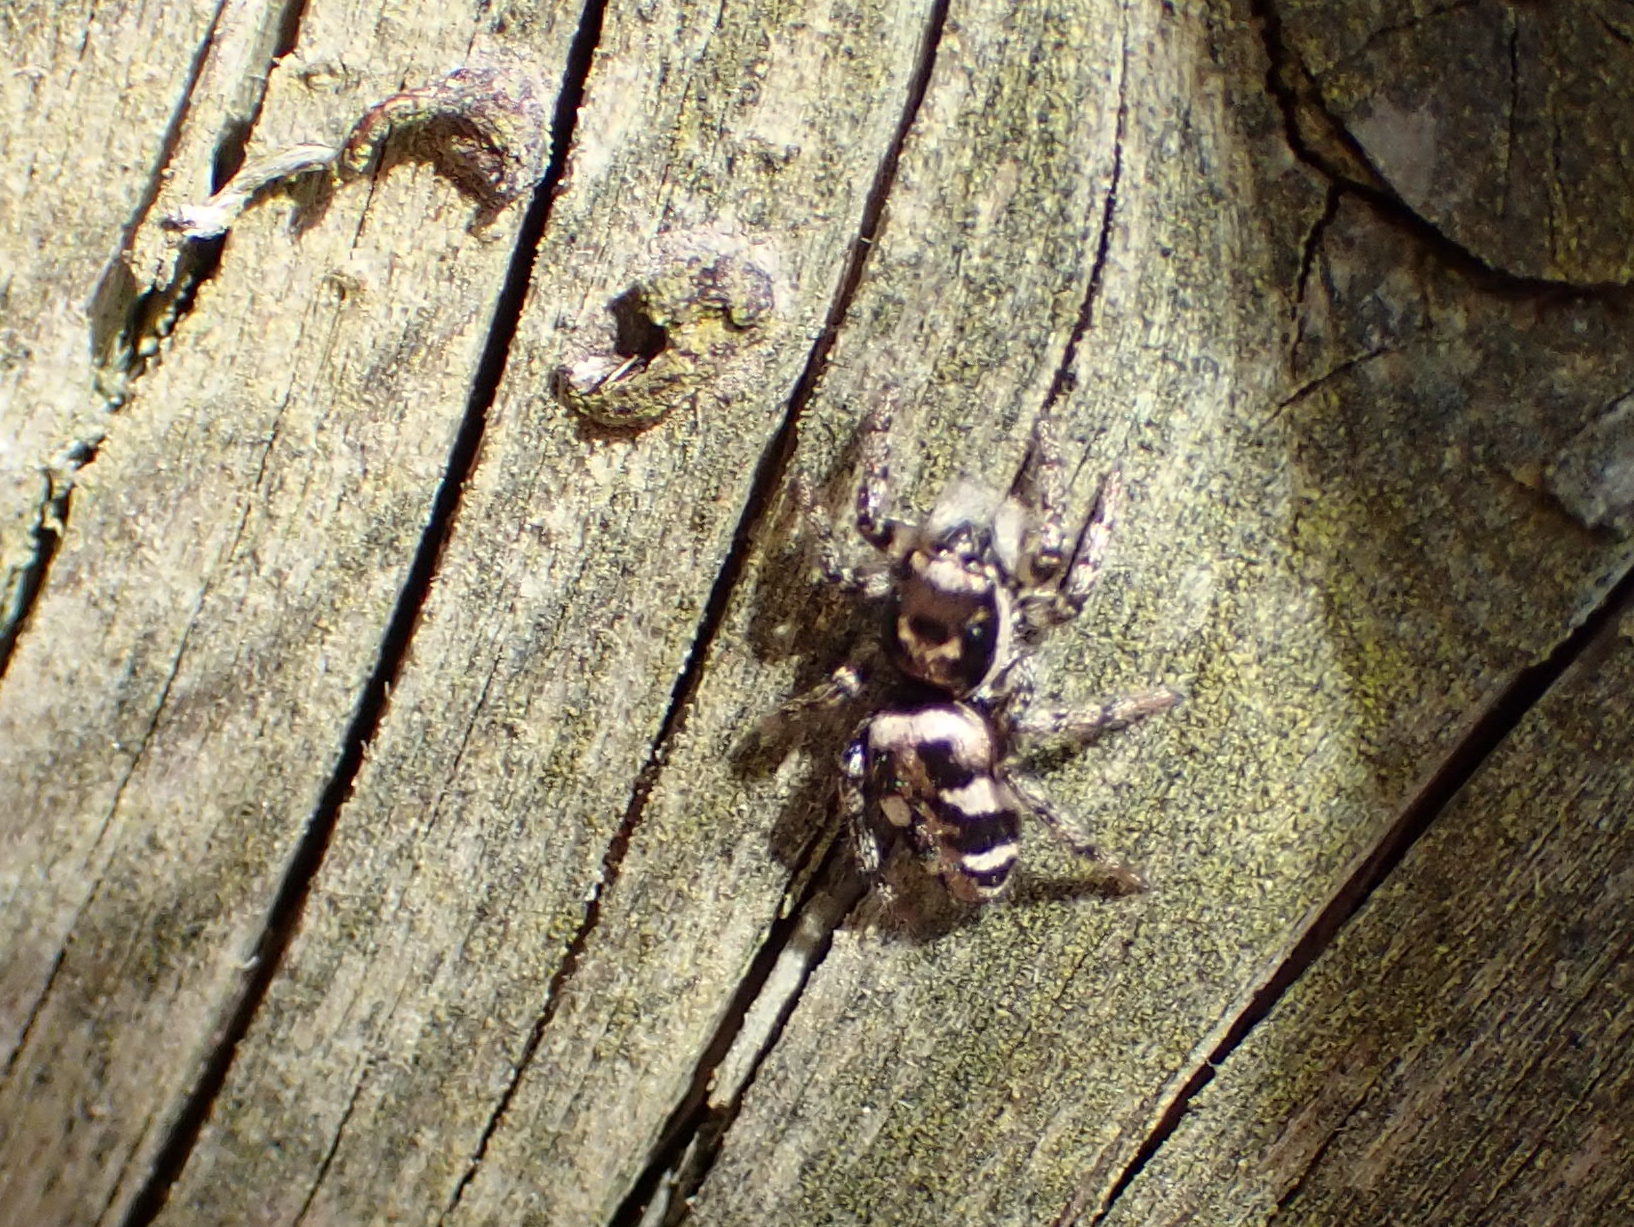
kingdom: Animalia
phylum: Arthropoda
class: Arachnida
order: Araneae
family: Salticidae
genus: Salticus
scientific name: Salticus scenicus
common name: Zebra jumper
